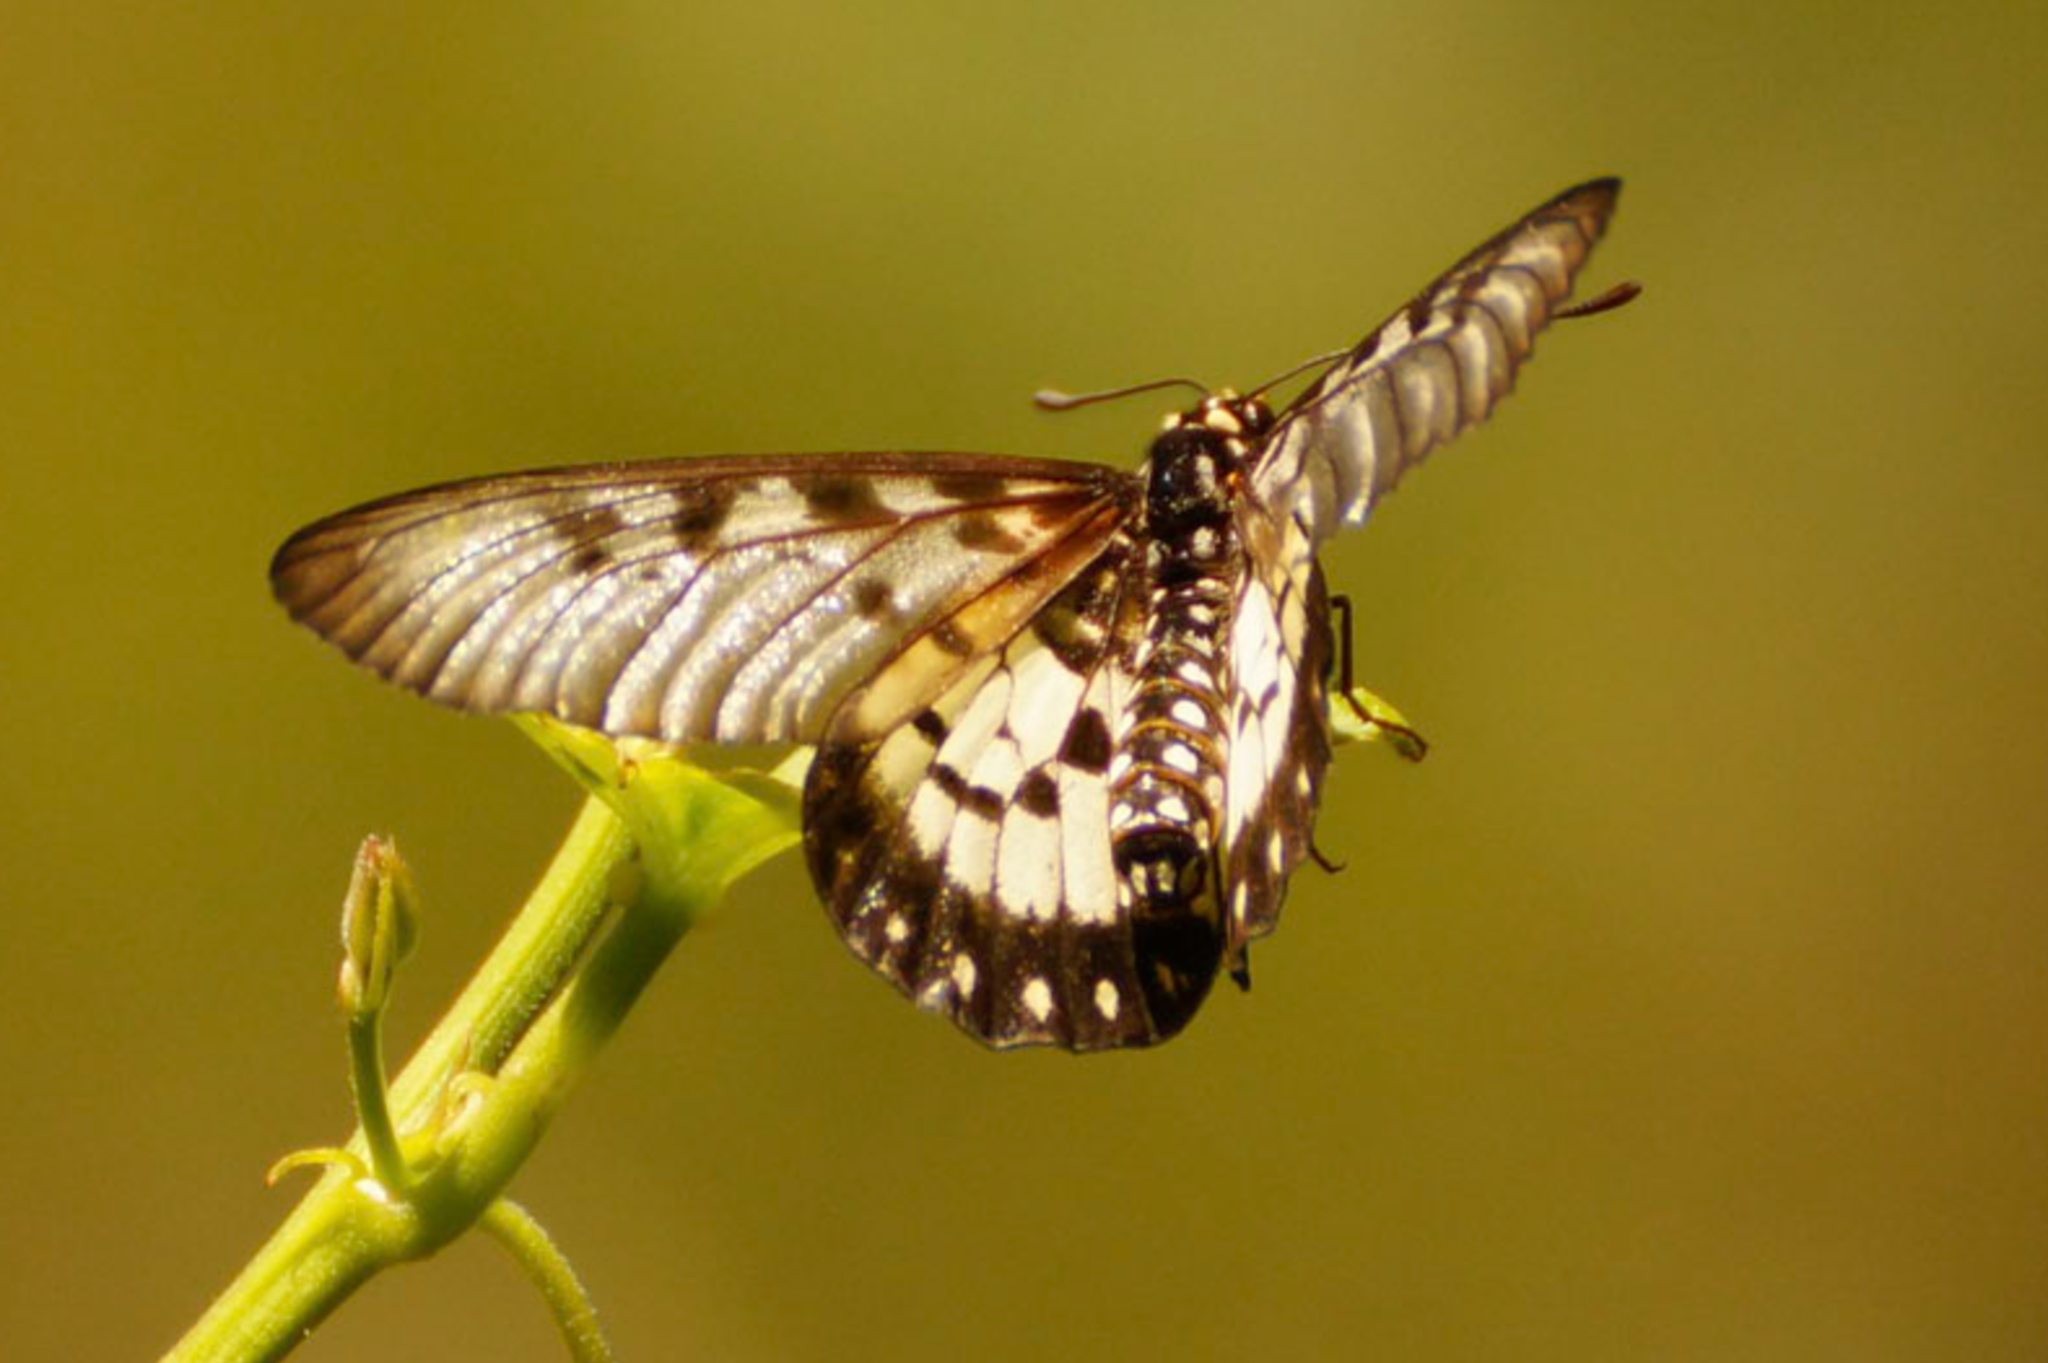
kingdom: Animalia
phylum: Arthropoda
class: Insecta
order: Lepidoptera
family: Nymphalidae
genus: Acraea
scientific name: Acraea andromacha
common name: Glasswing
